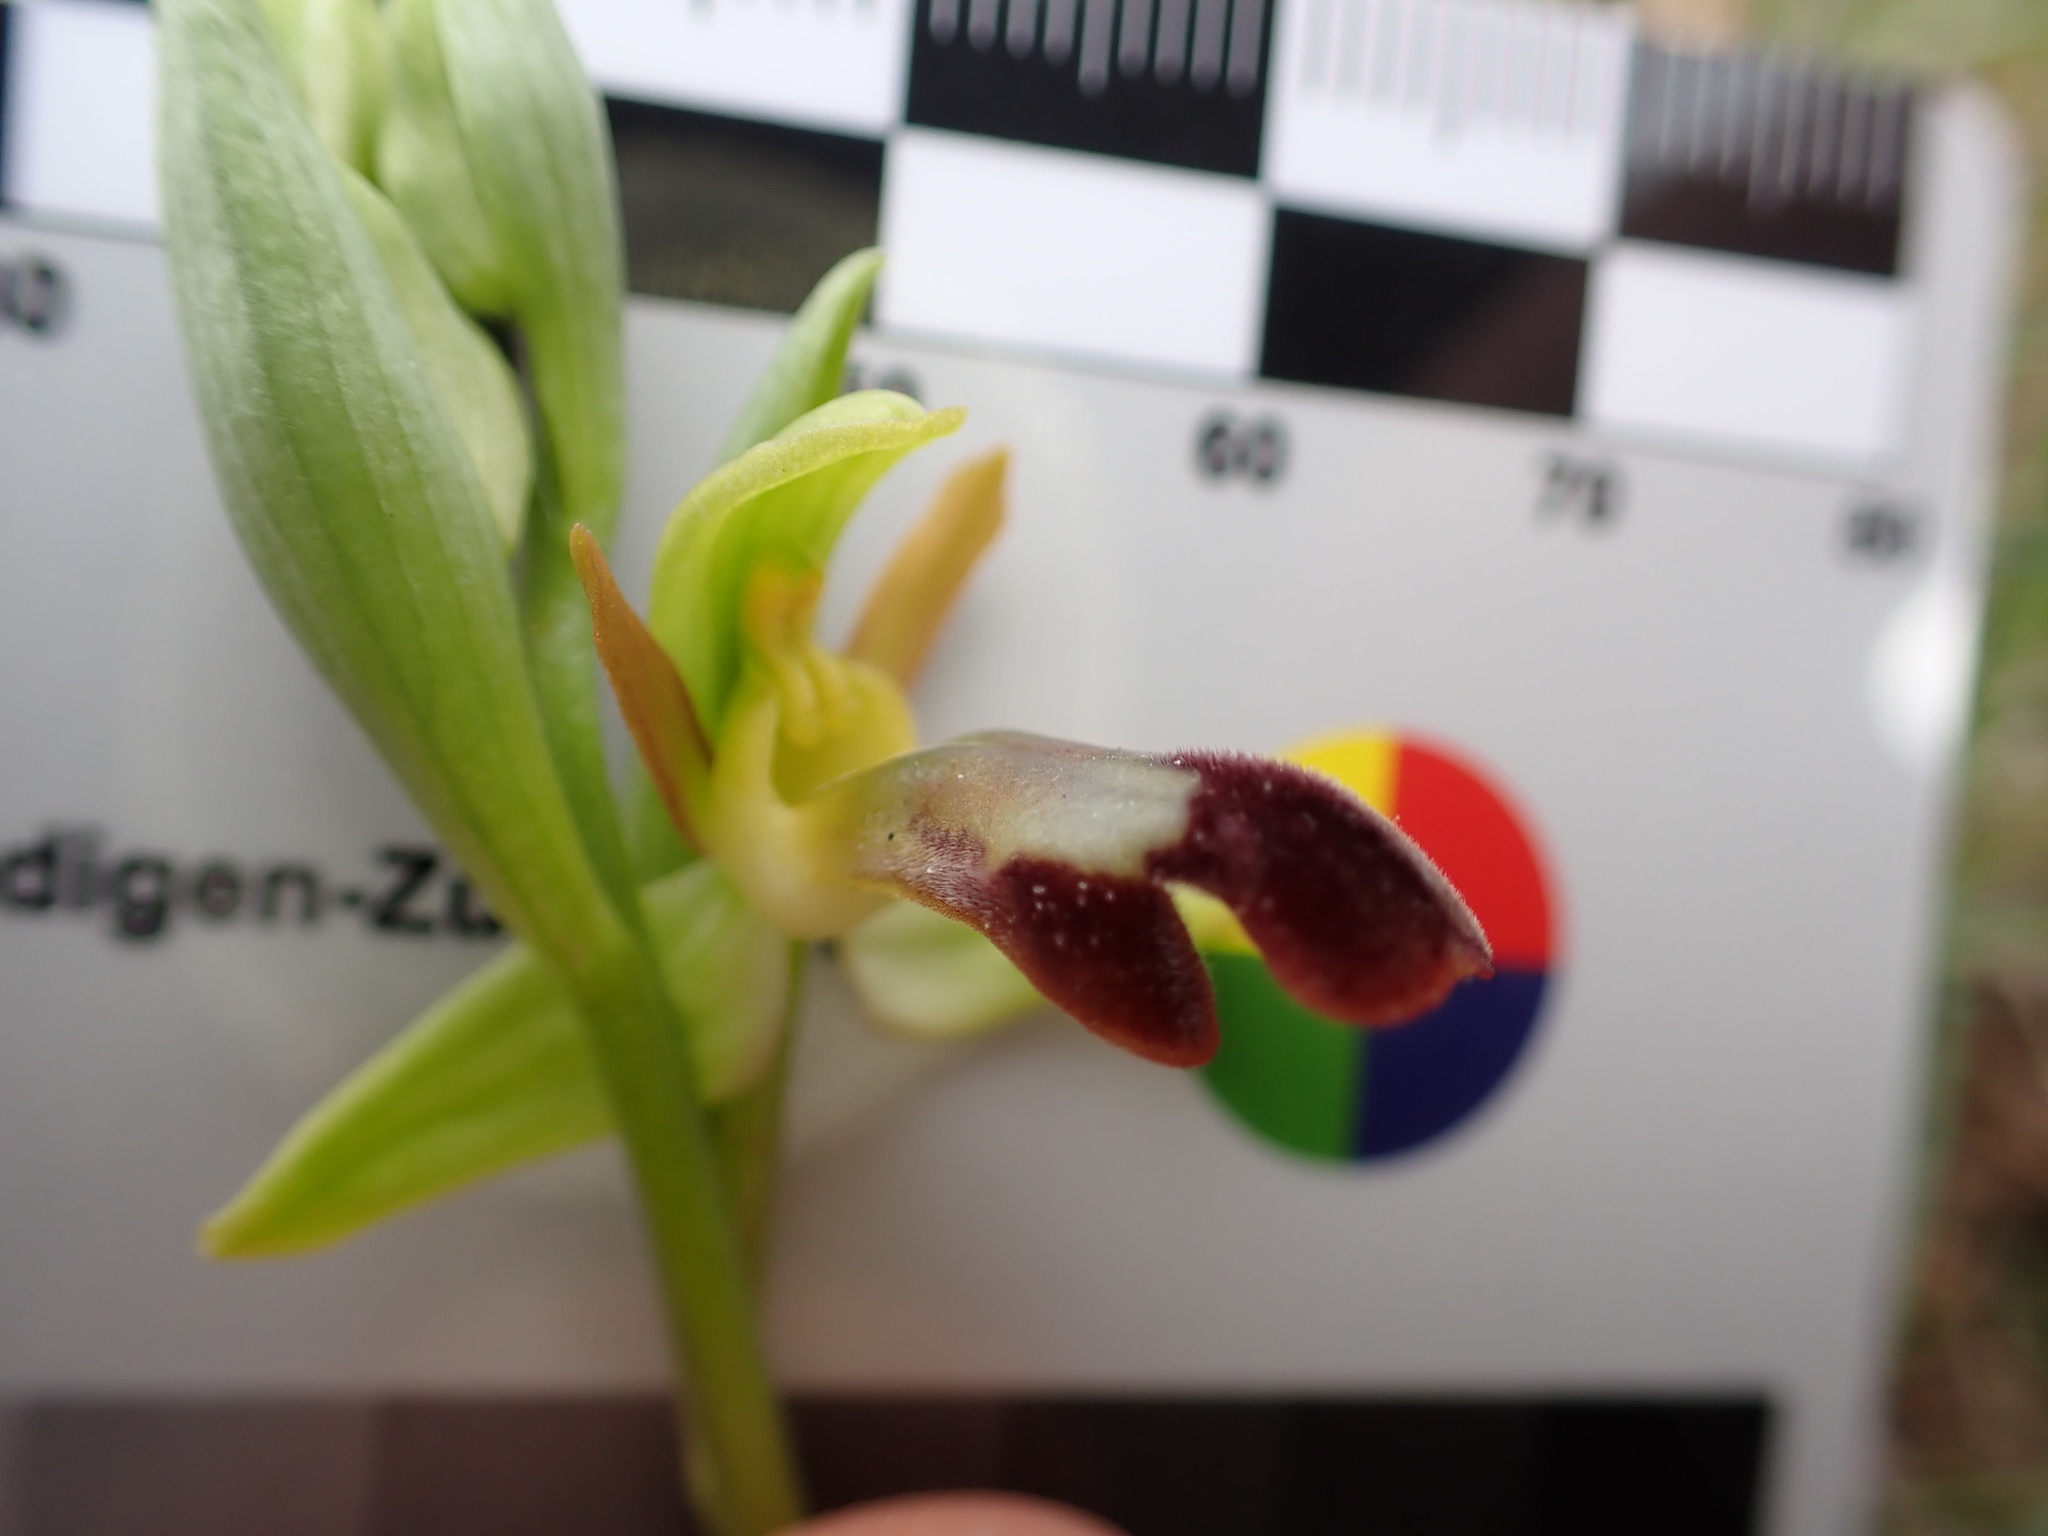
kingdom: Plantae
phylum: Tracheophyta
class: Liliopsida
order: Asparagales
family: Orchidaceae
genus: Ophrys
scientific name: Ophrys fusca
